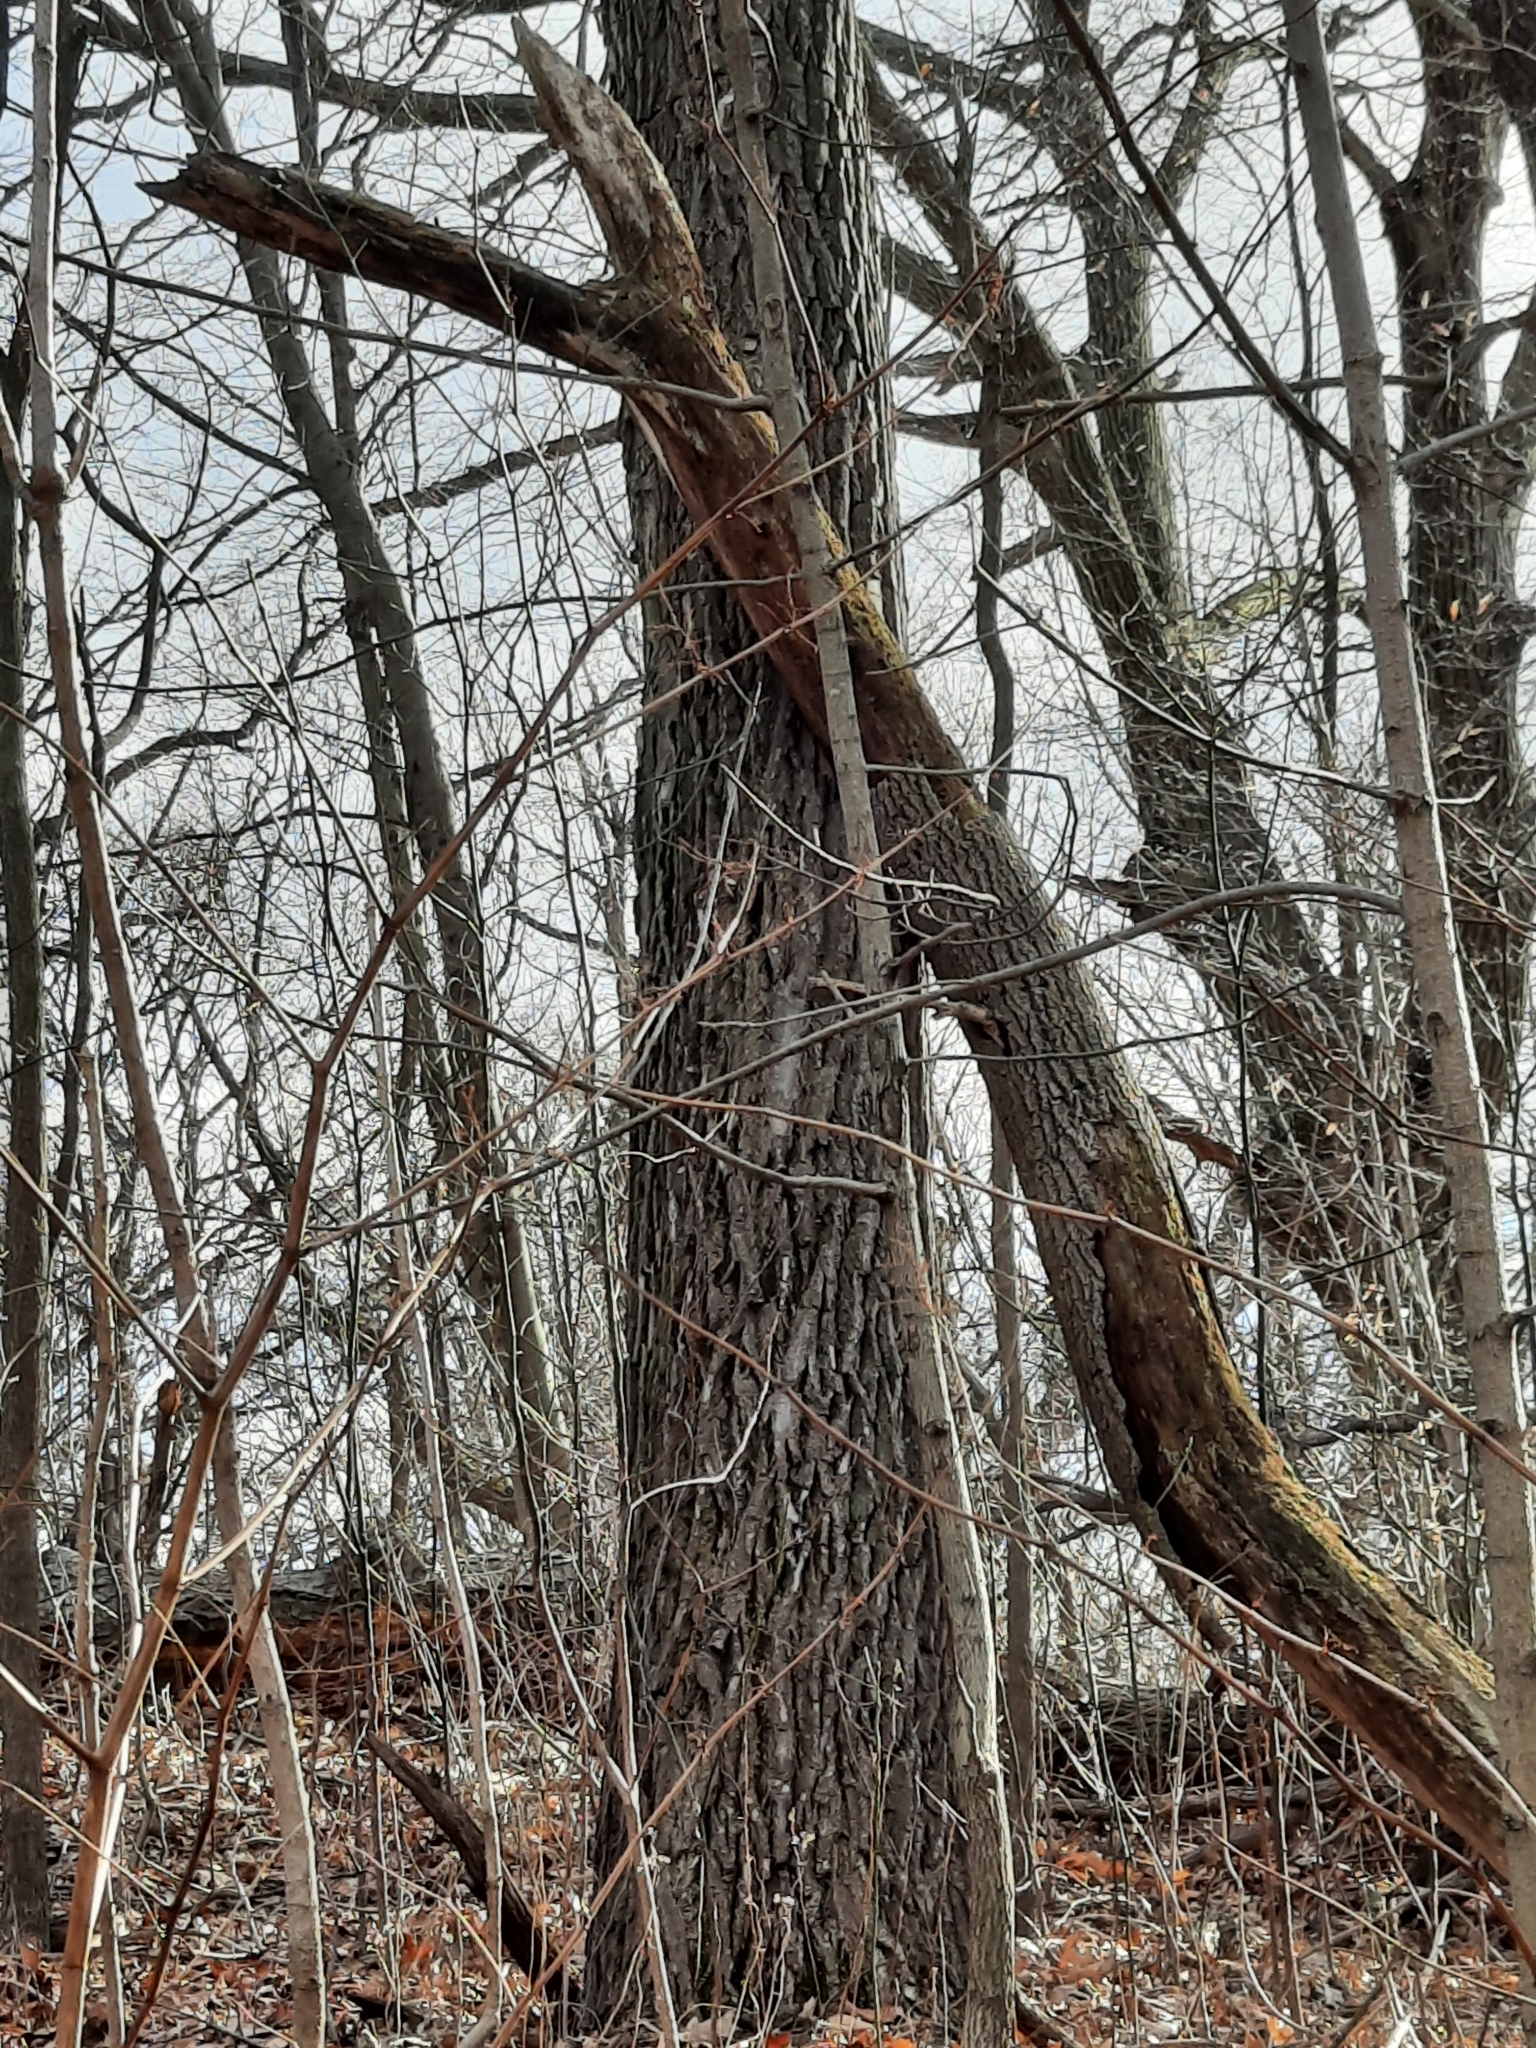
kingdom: Plantae
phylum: Tracheophyta
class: Magnoliopsida
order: Laurales
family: Lauraceae
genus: Sassafras
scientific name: Sassafras albidum
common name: Sassafras
